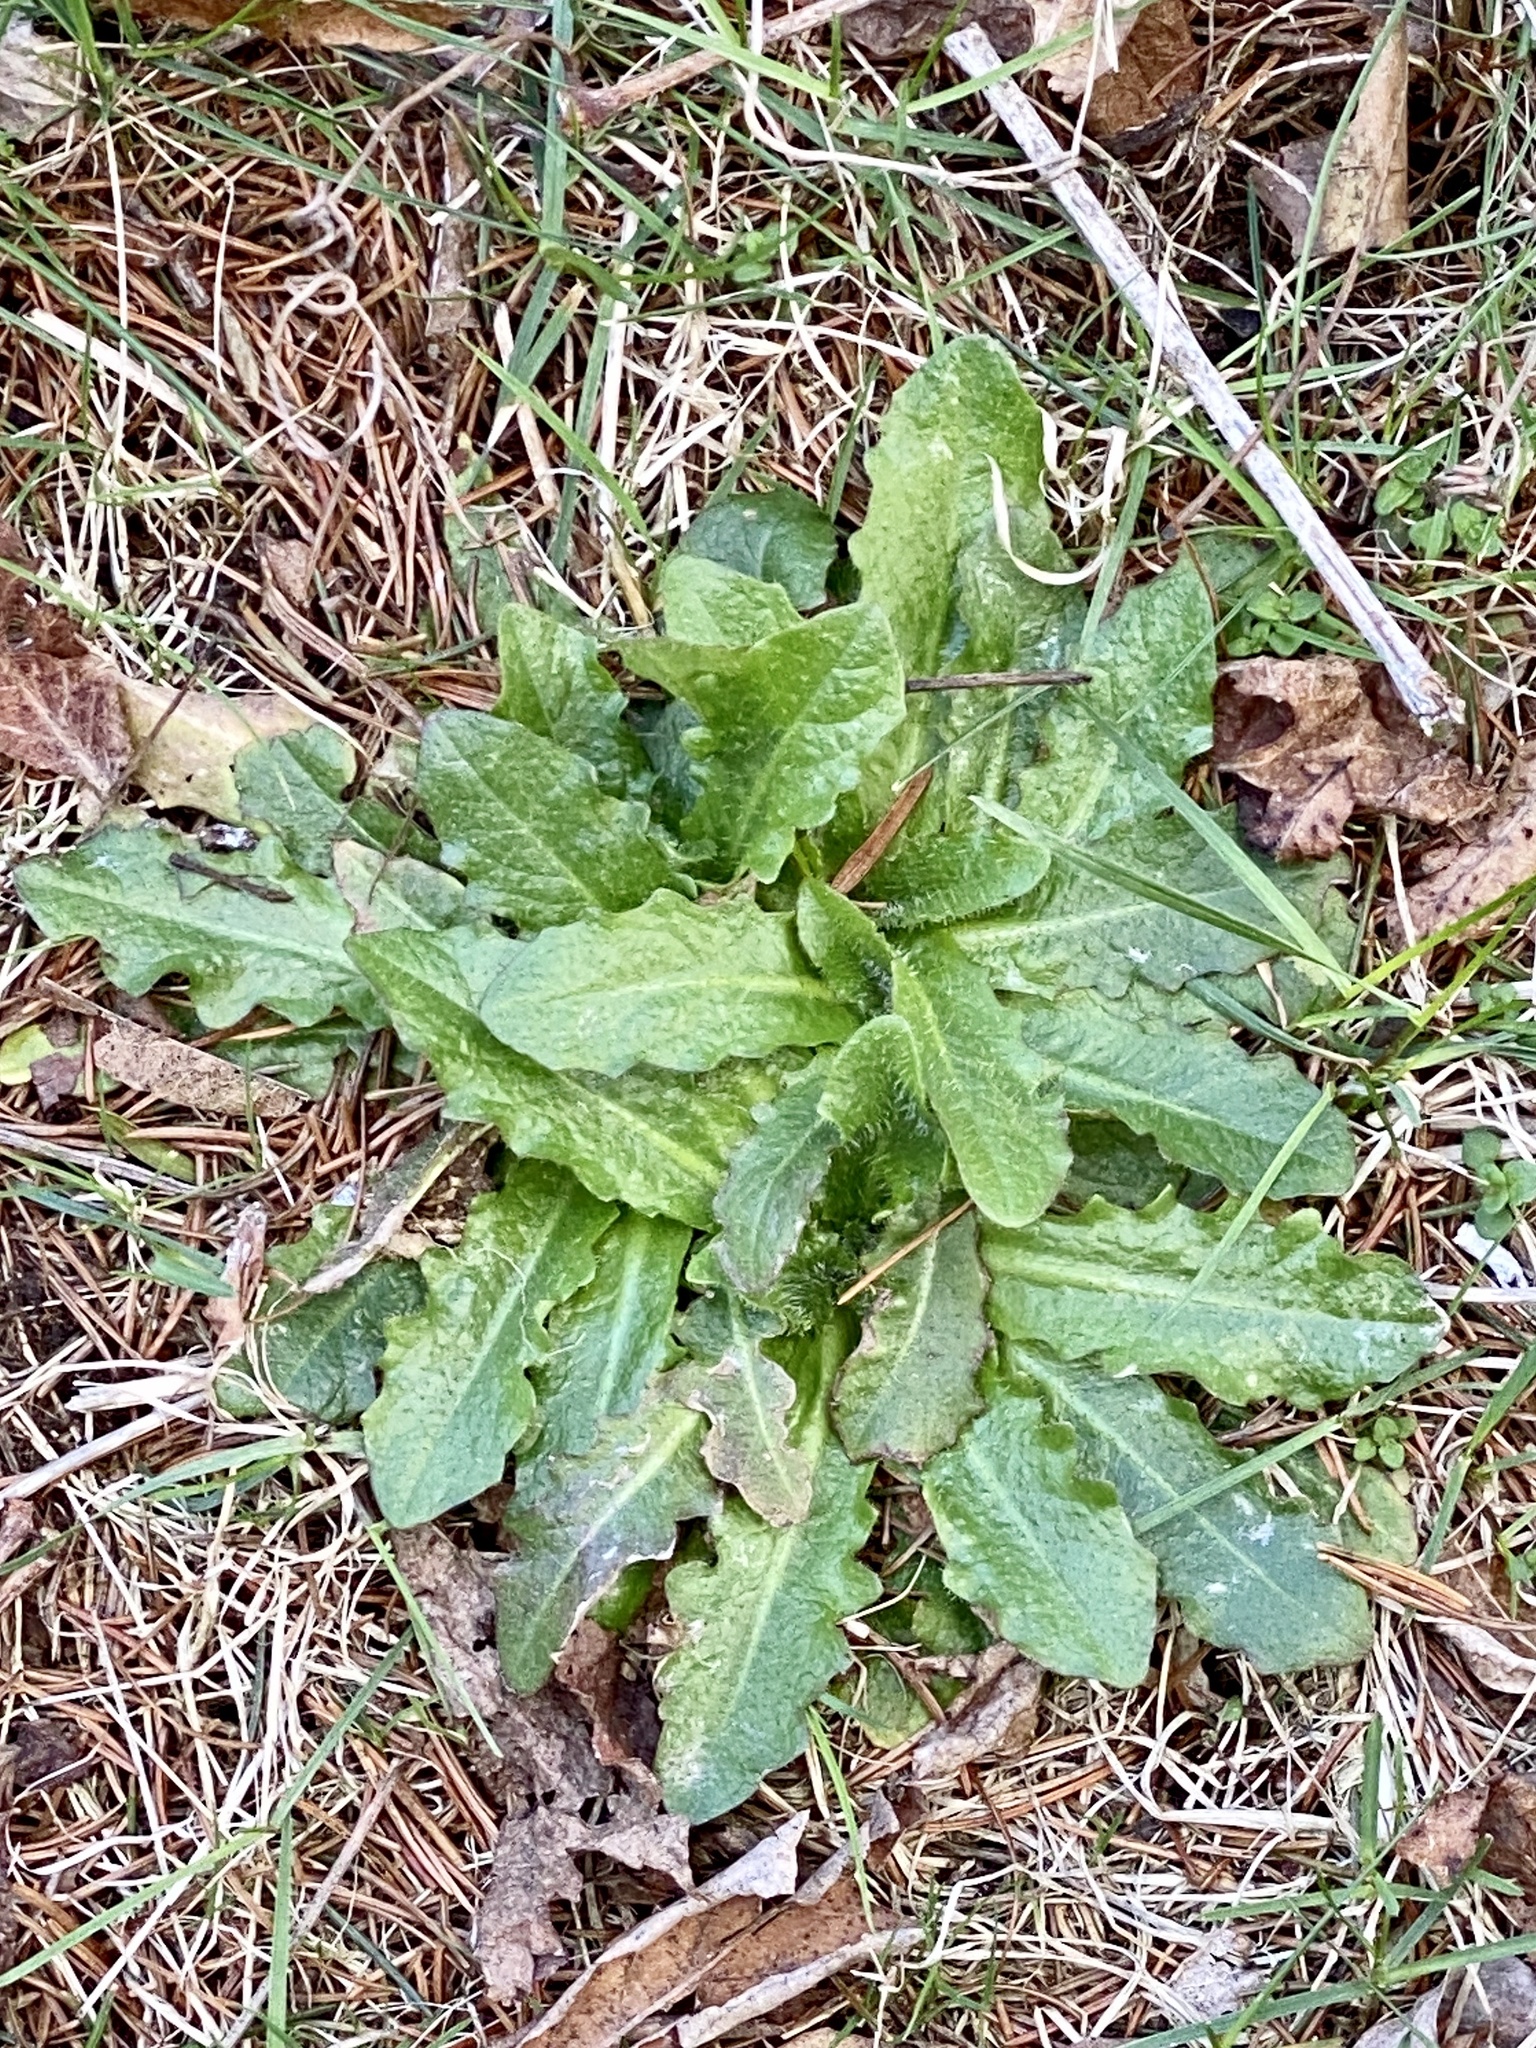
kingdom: Plantae
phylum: Tracheophyta
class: Magnoliopsida
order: Asterales
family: Asteraceae
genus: Hypochaeris
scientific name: Hypochaeris radicata
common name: Flatweed
